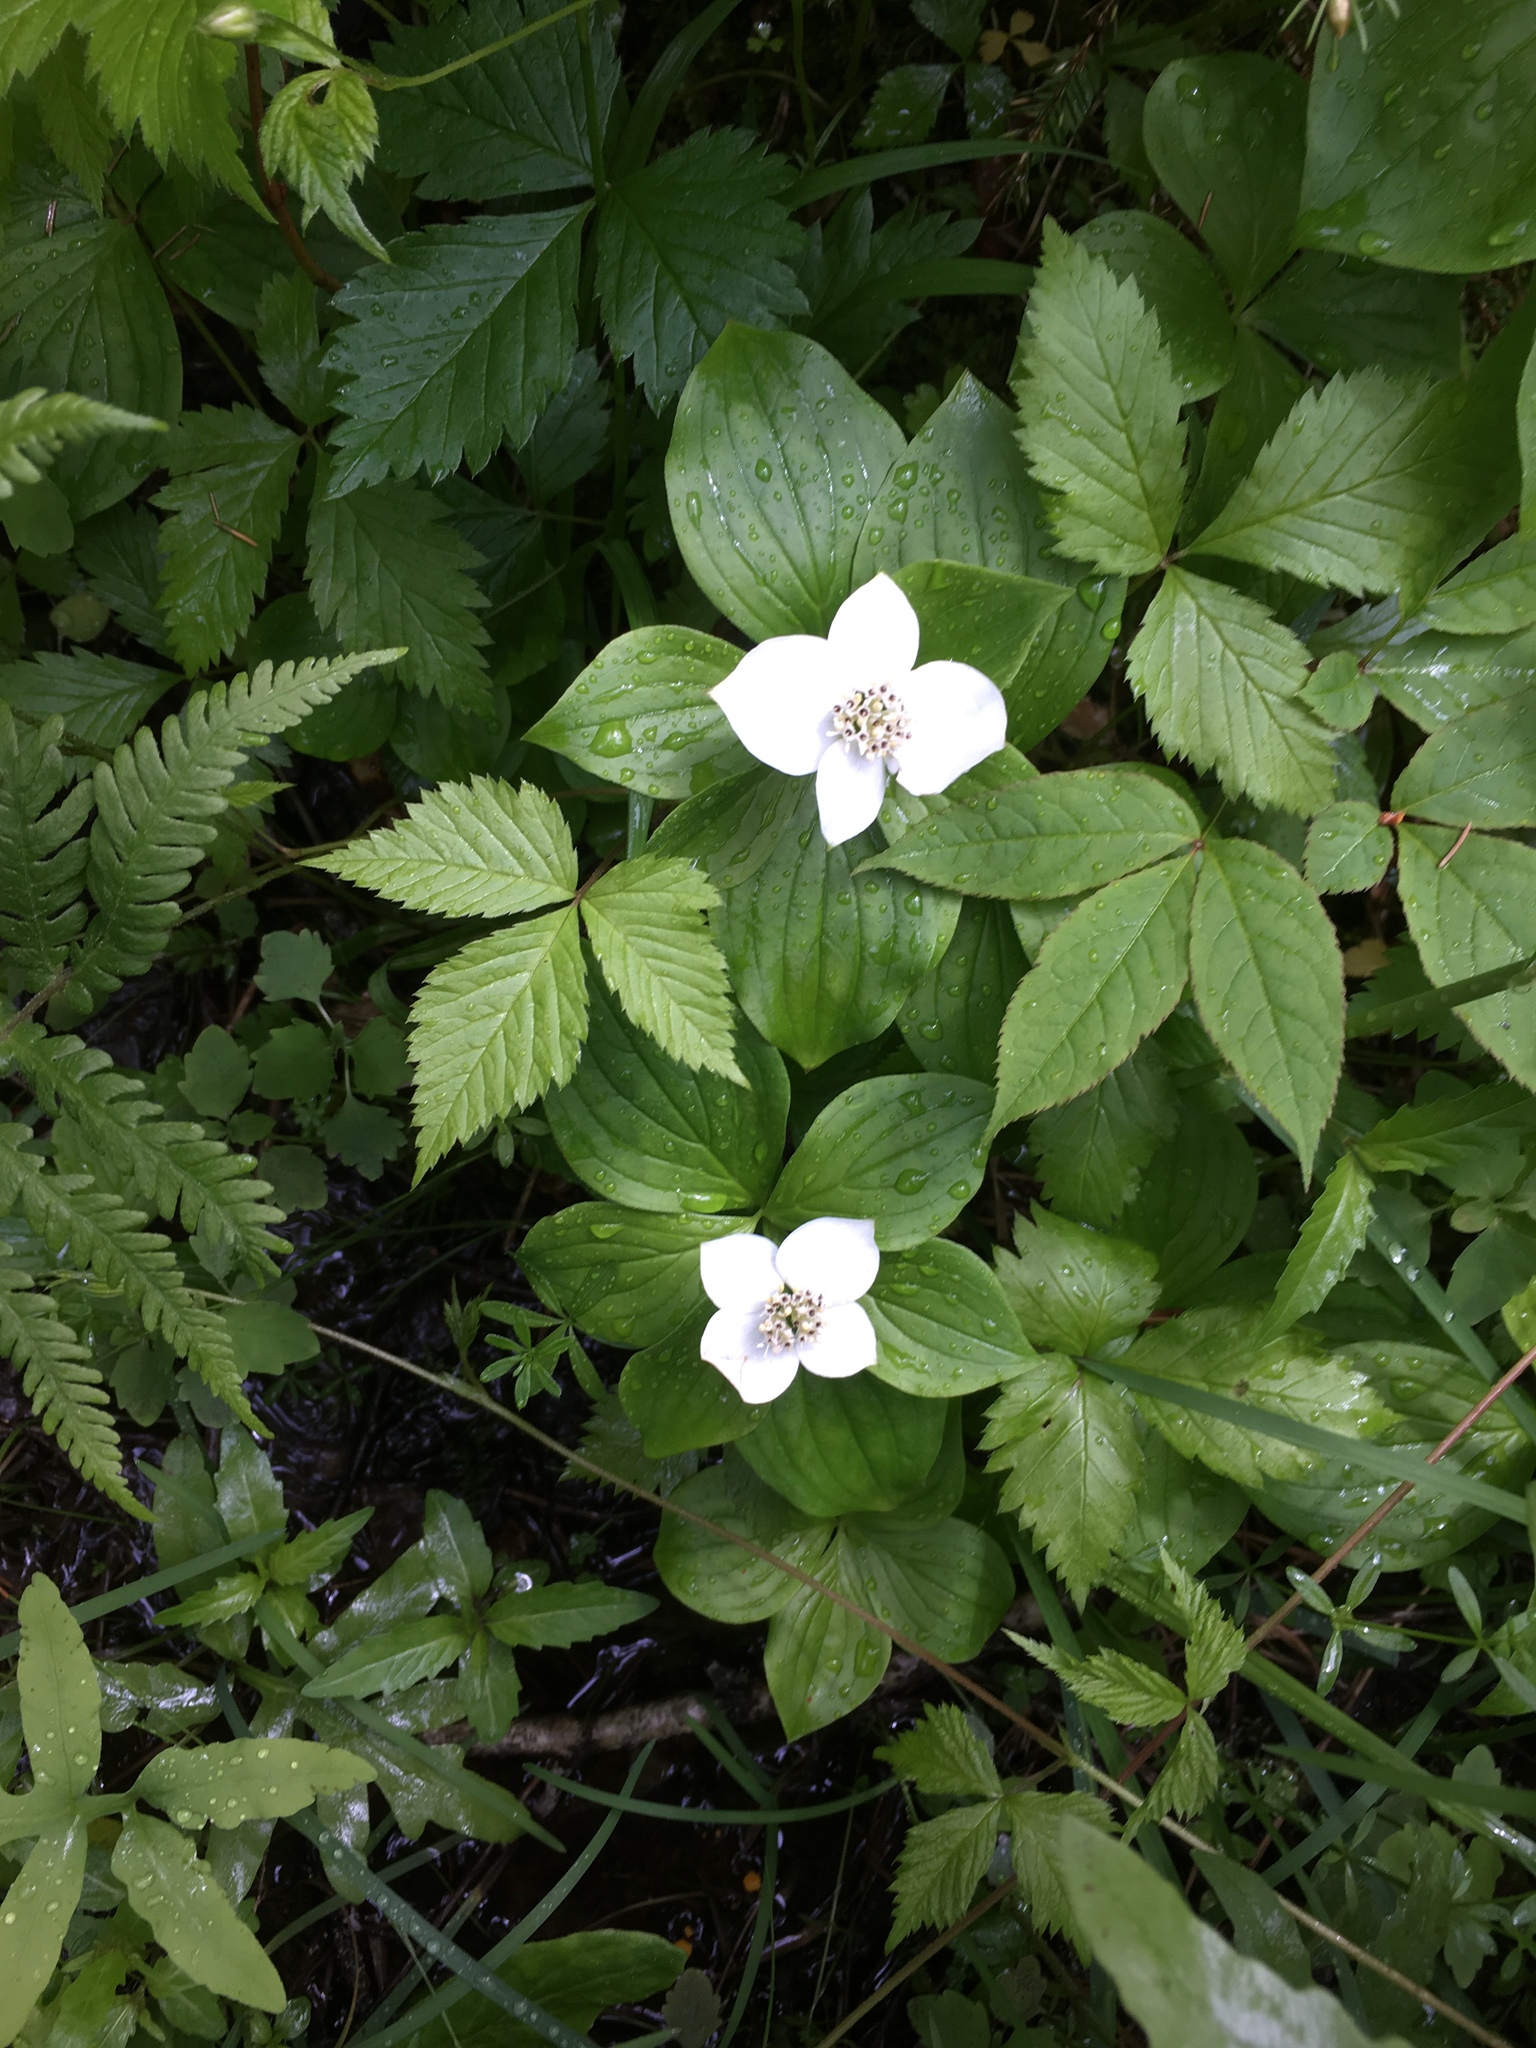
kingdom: Plantae
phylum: Tracheophyta
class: Magnoliopsida
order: Cornales
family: Cornaceae
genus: Cornus
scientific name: Cornus canadensis
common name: Creeping dogwood
